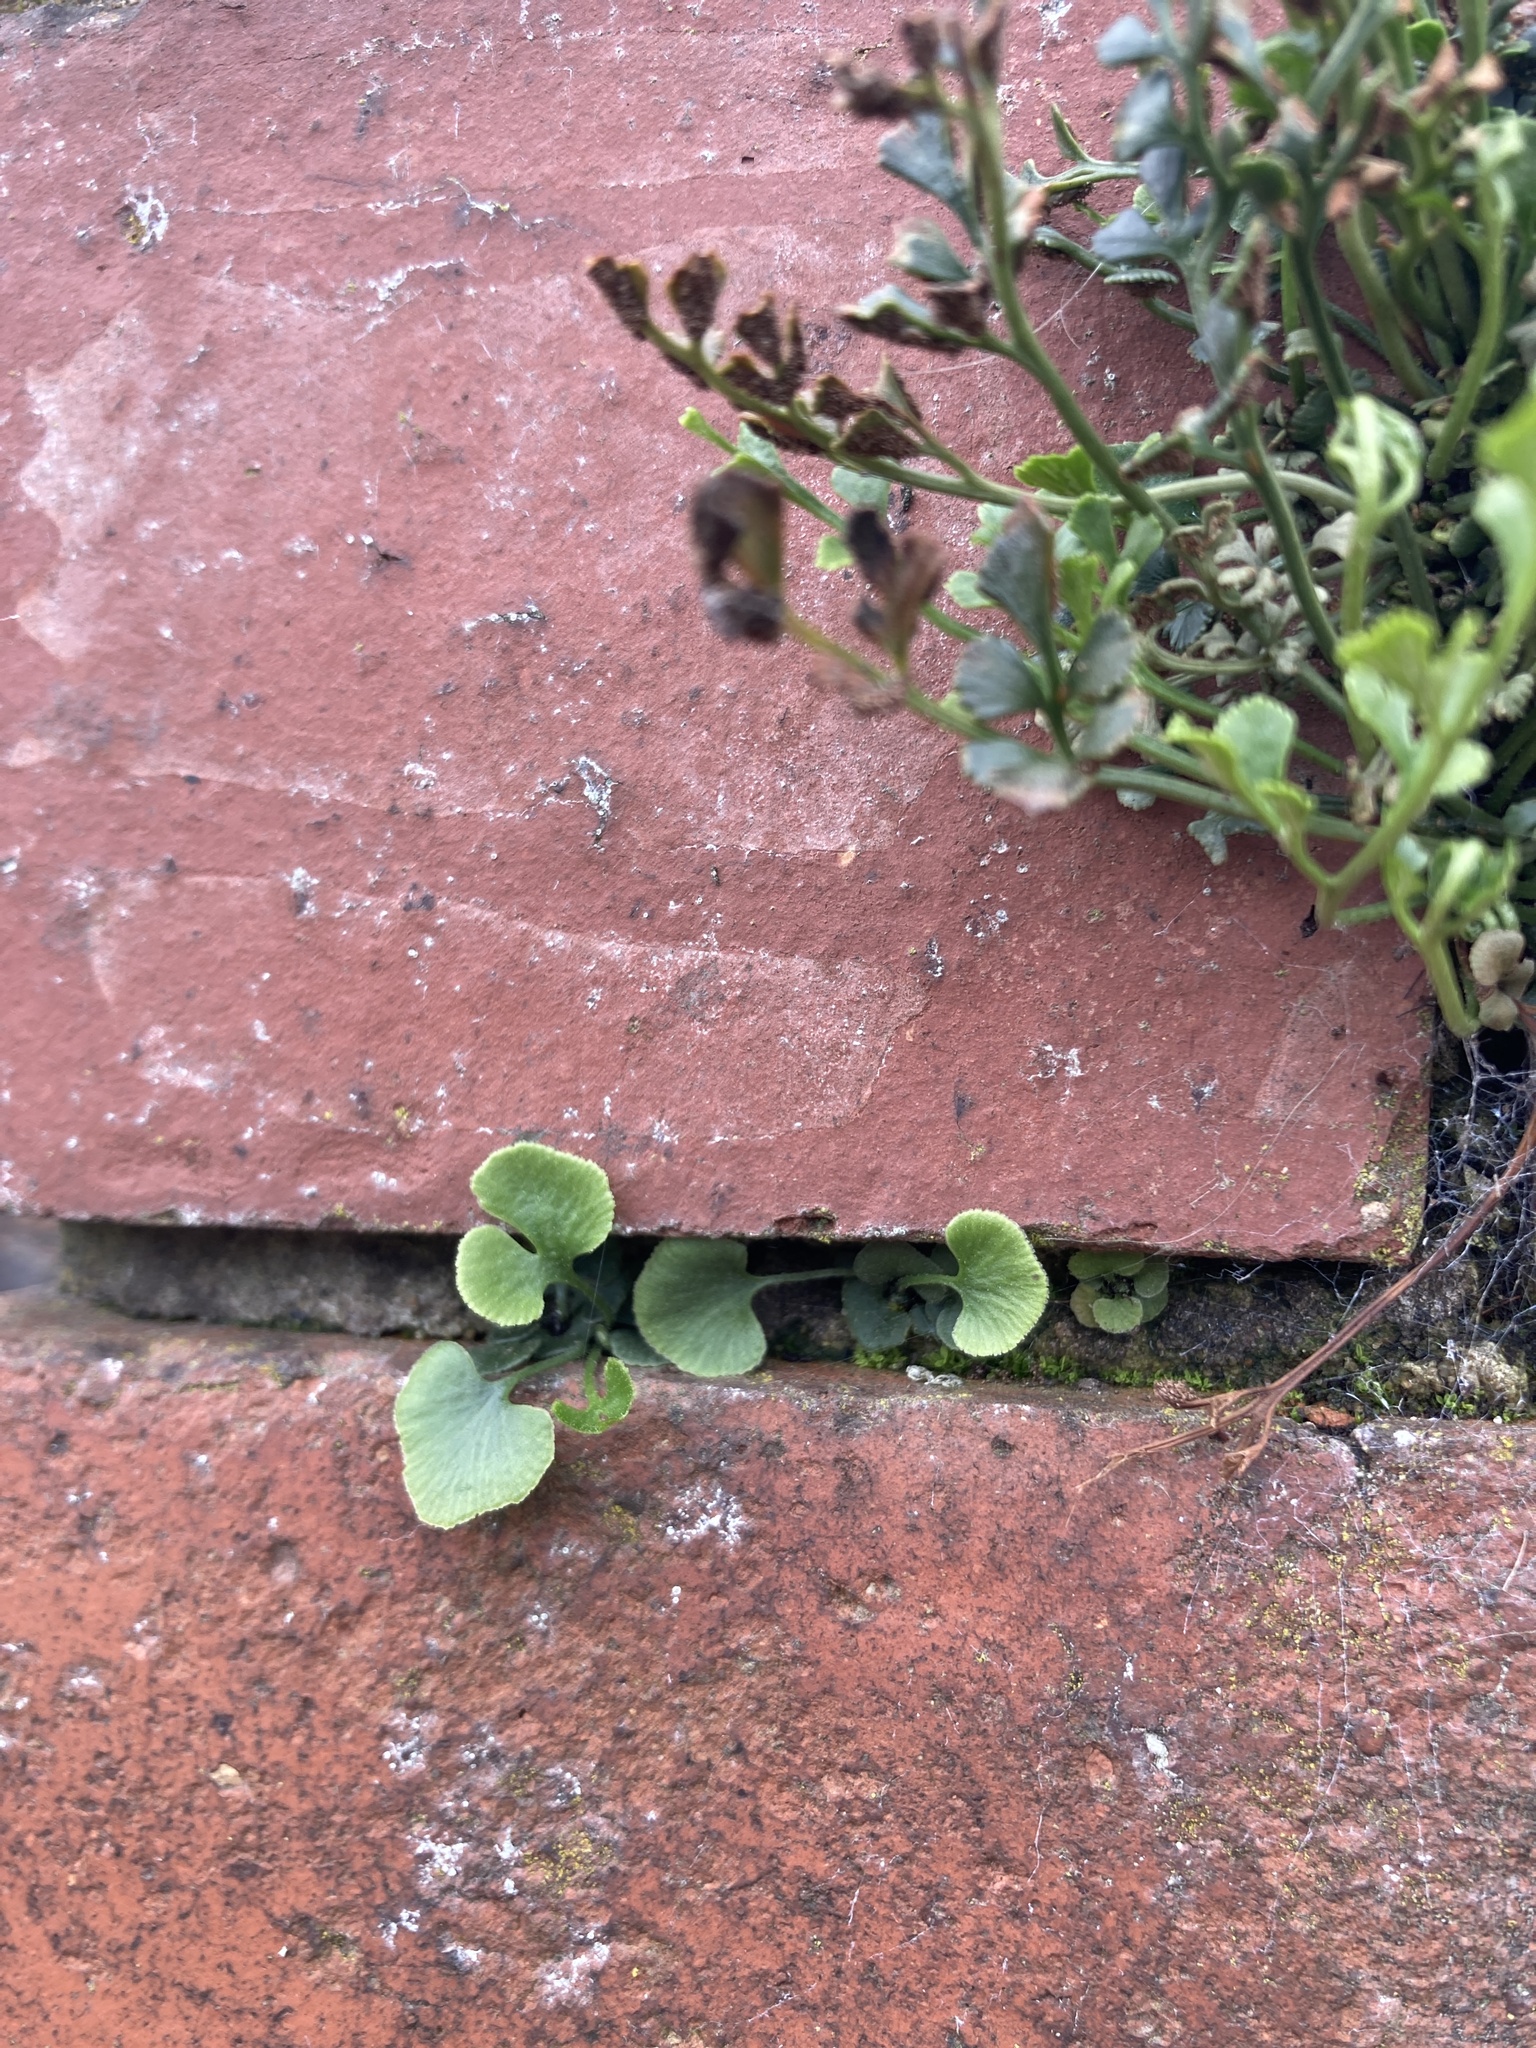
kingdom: Plantae
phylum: Tracheophyta
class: Polypodiopsida
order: Polypodiales
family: Aspleniaceae
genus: Asplenium
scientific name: Asplenium ruta-muraria
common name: Wall-rue
